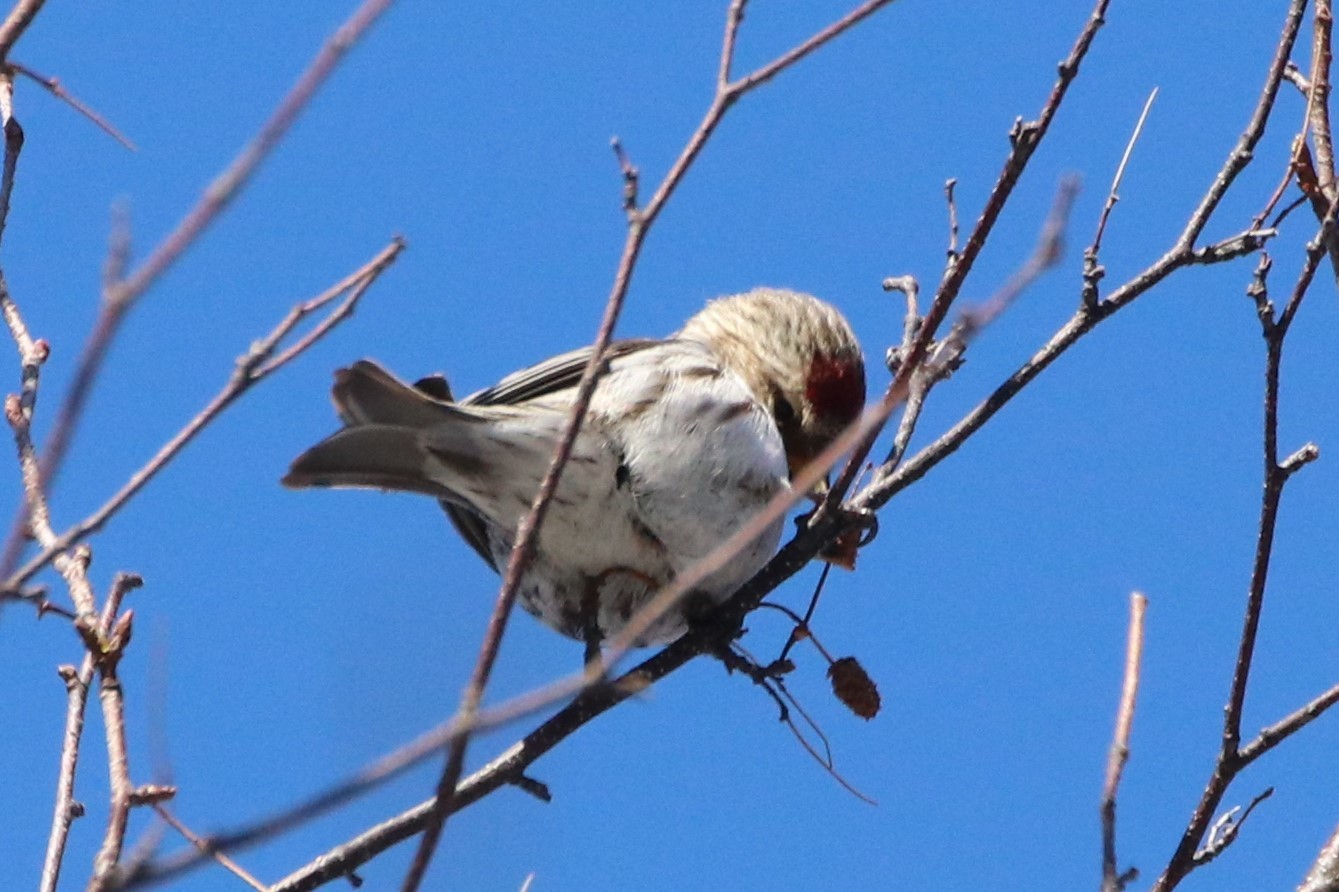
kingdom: Animalia
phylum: Chordata
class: Aves
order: Passeriformes
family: Fringillidae
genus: Acanthis
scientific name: Acanthis flammea
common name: Common redpoll
